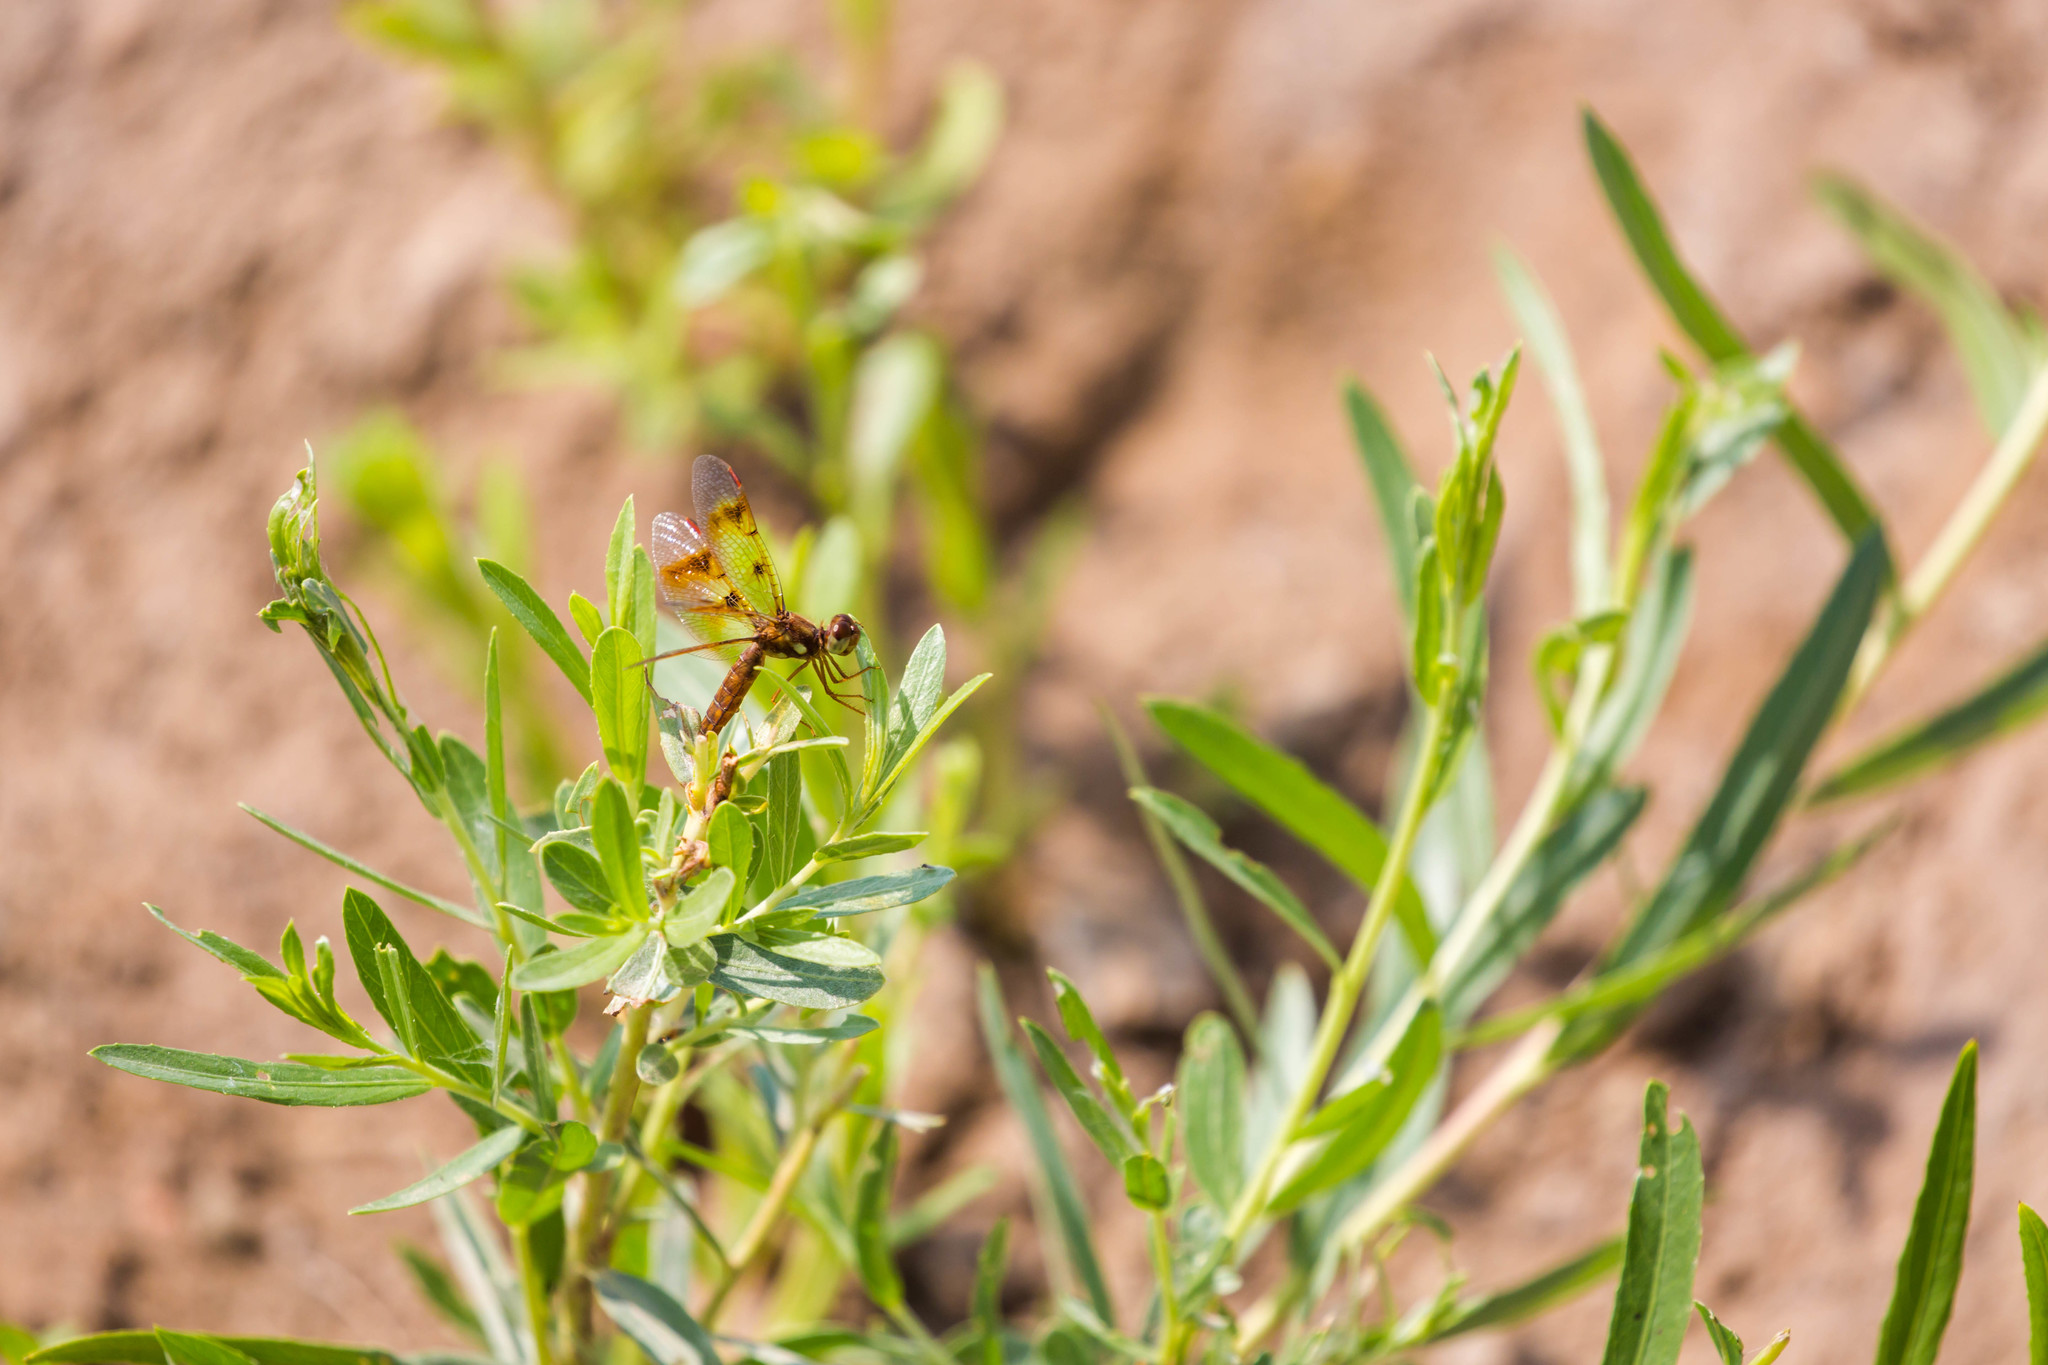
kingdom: Animalia
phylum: Arthropoda
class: Insecta
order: Odonata
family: Libellulidae
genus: Perithemis
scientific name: Perithemis tenera
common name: Eastern amberwing
